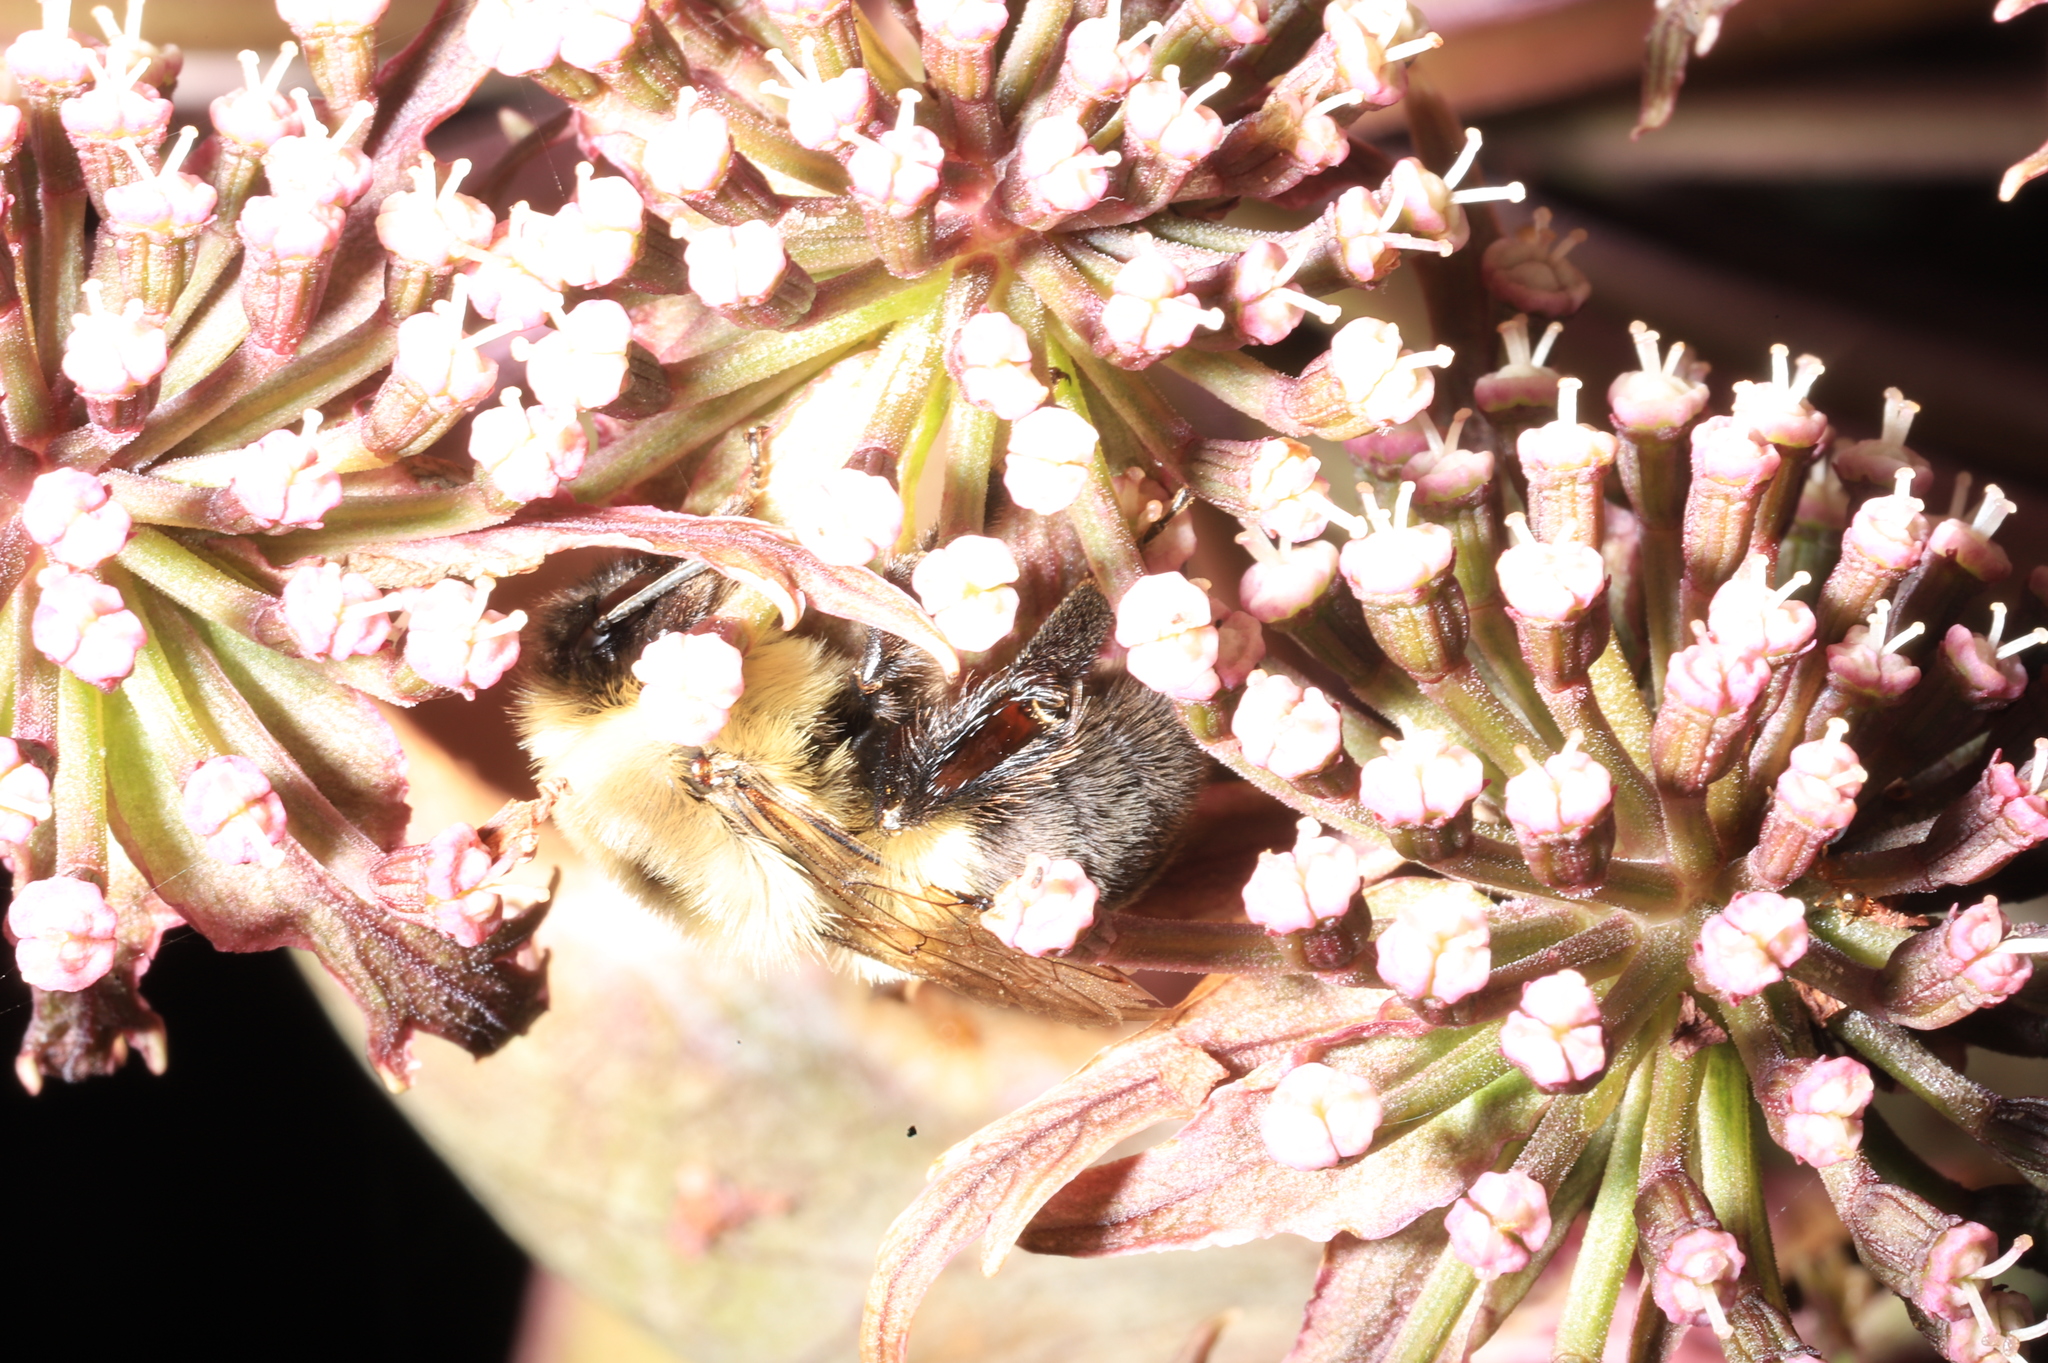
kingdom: Animalia
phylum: Arthropoda
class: Insecta
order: Hymenoptera
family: Apidae
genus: Bombus
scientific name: Bombus impatiens
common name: Common eastern bumble bee
